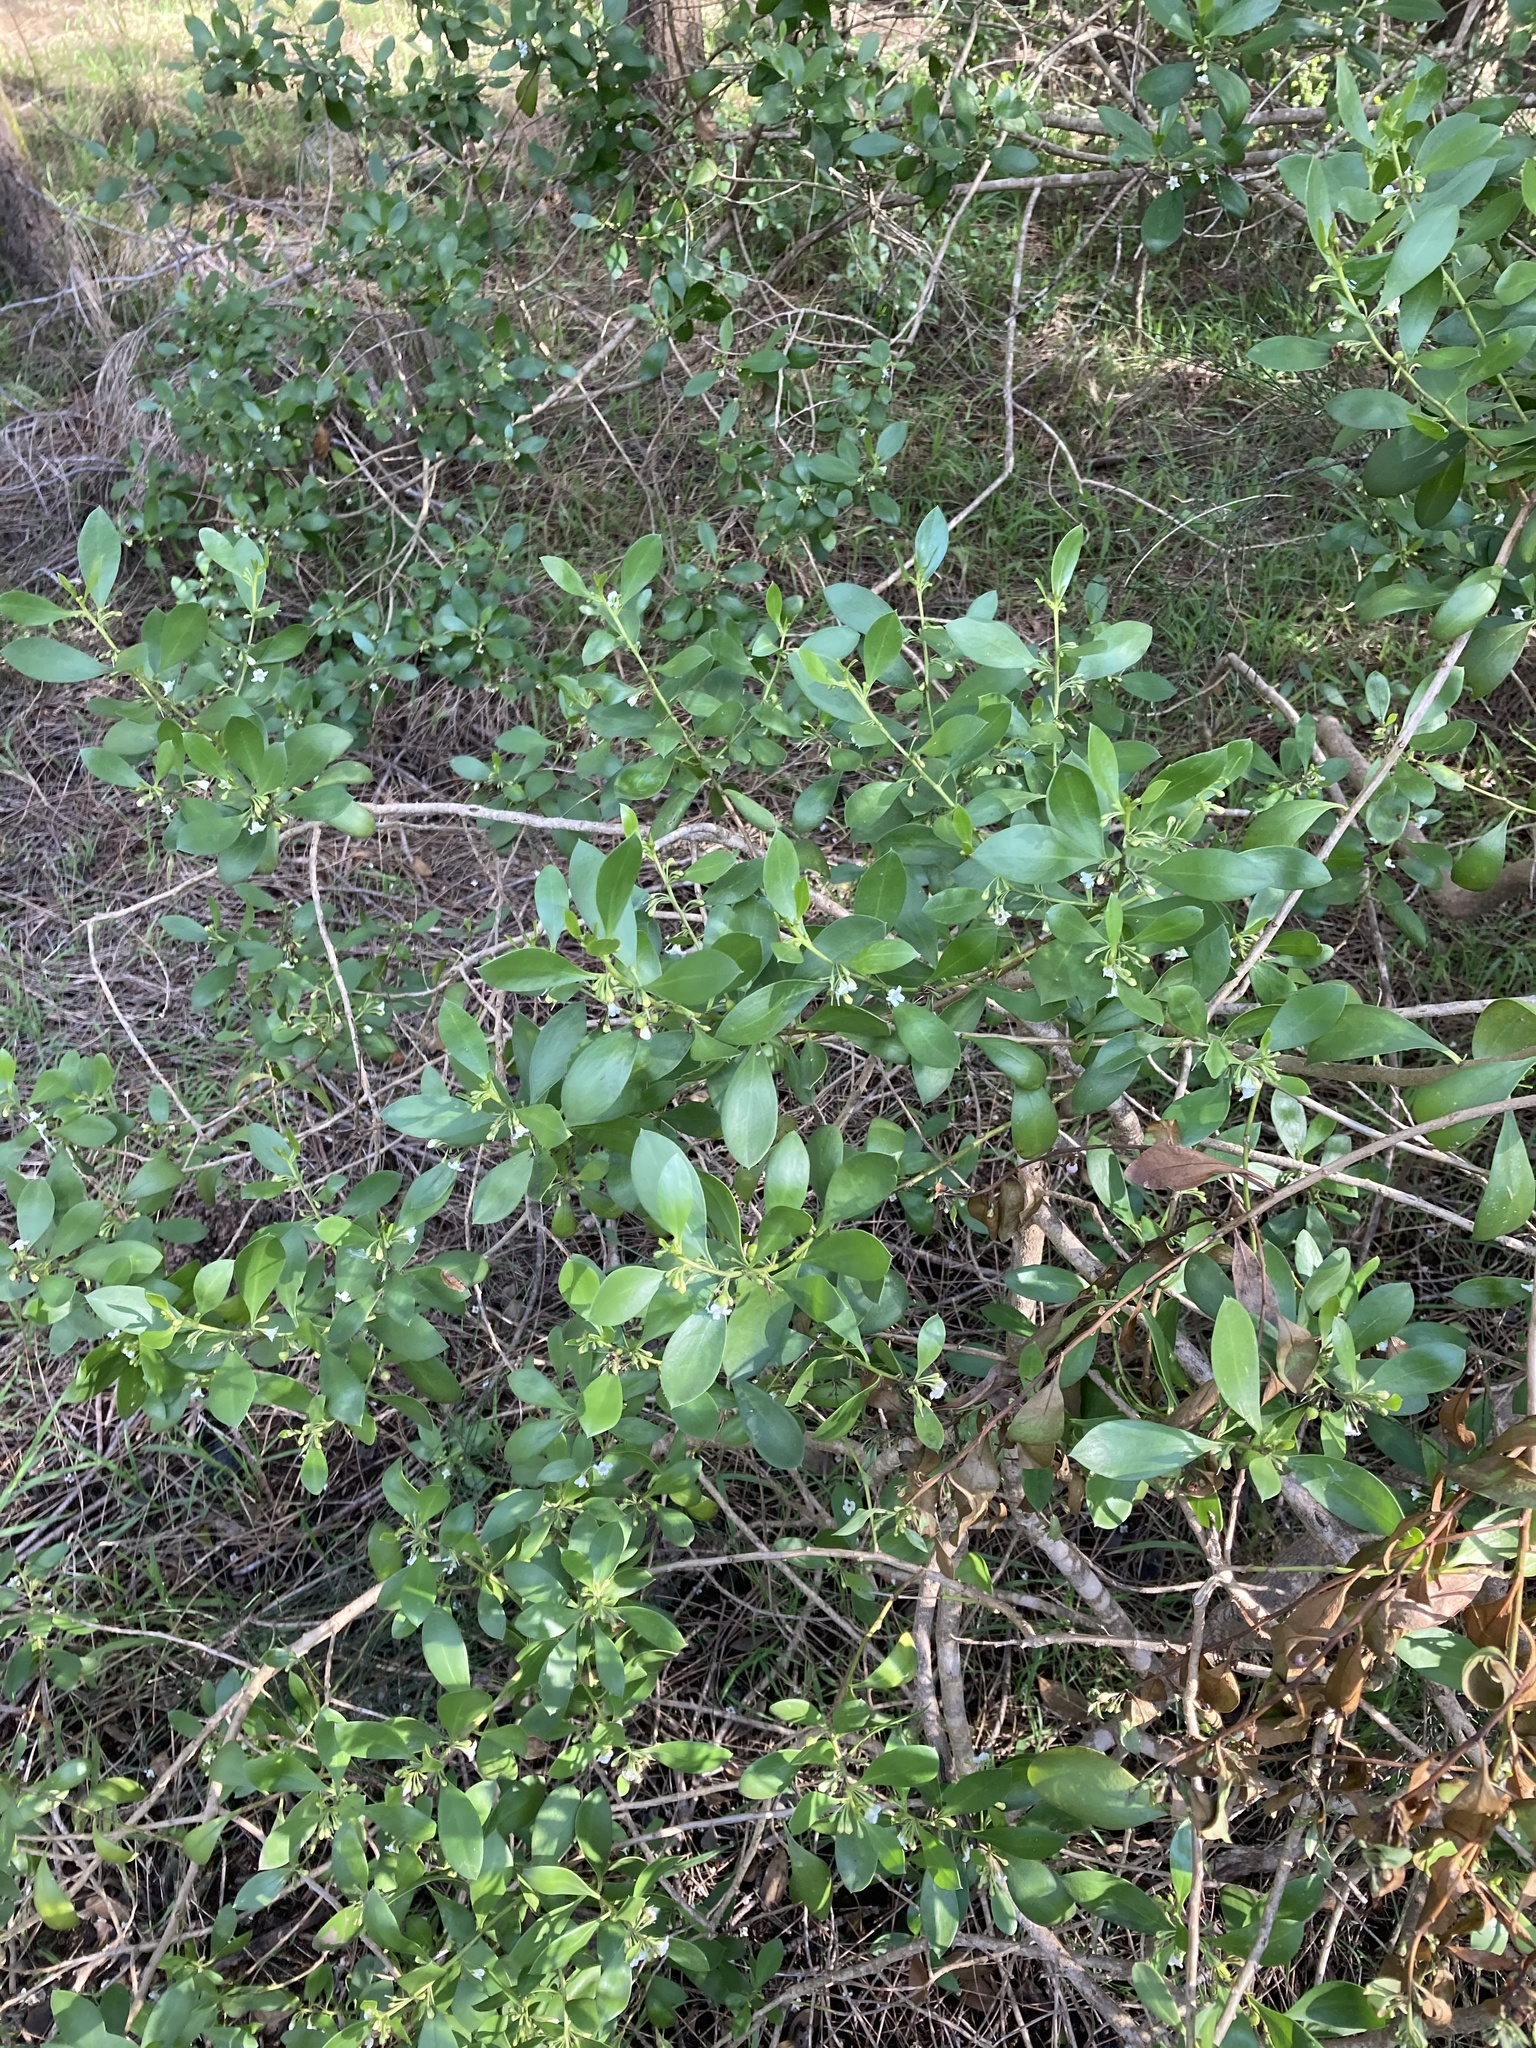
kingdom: Plantae
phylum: Tracheophyta
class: Magnoliopsida
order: Lamiales
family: Scrophulariaceae
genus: Myoporum
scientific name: Myoporum boninense
